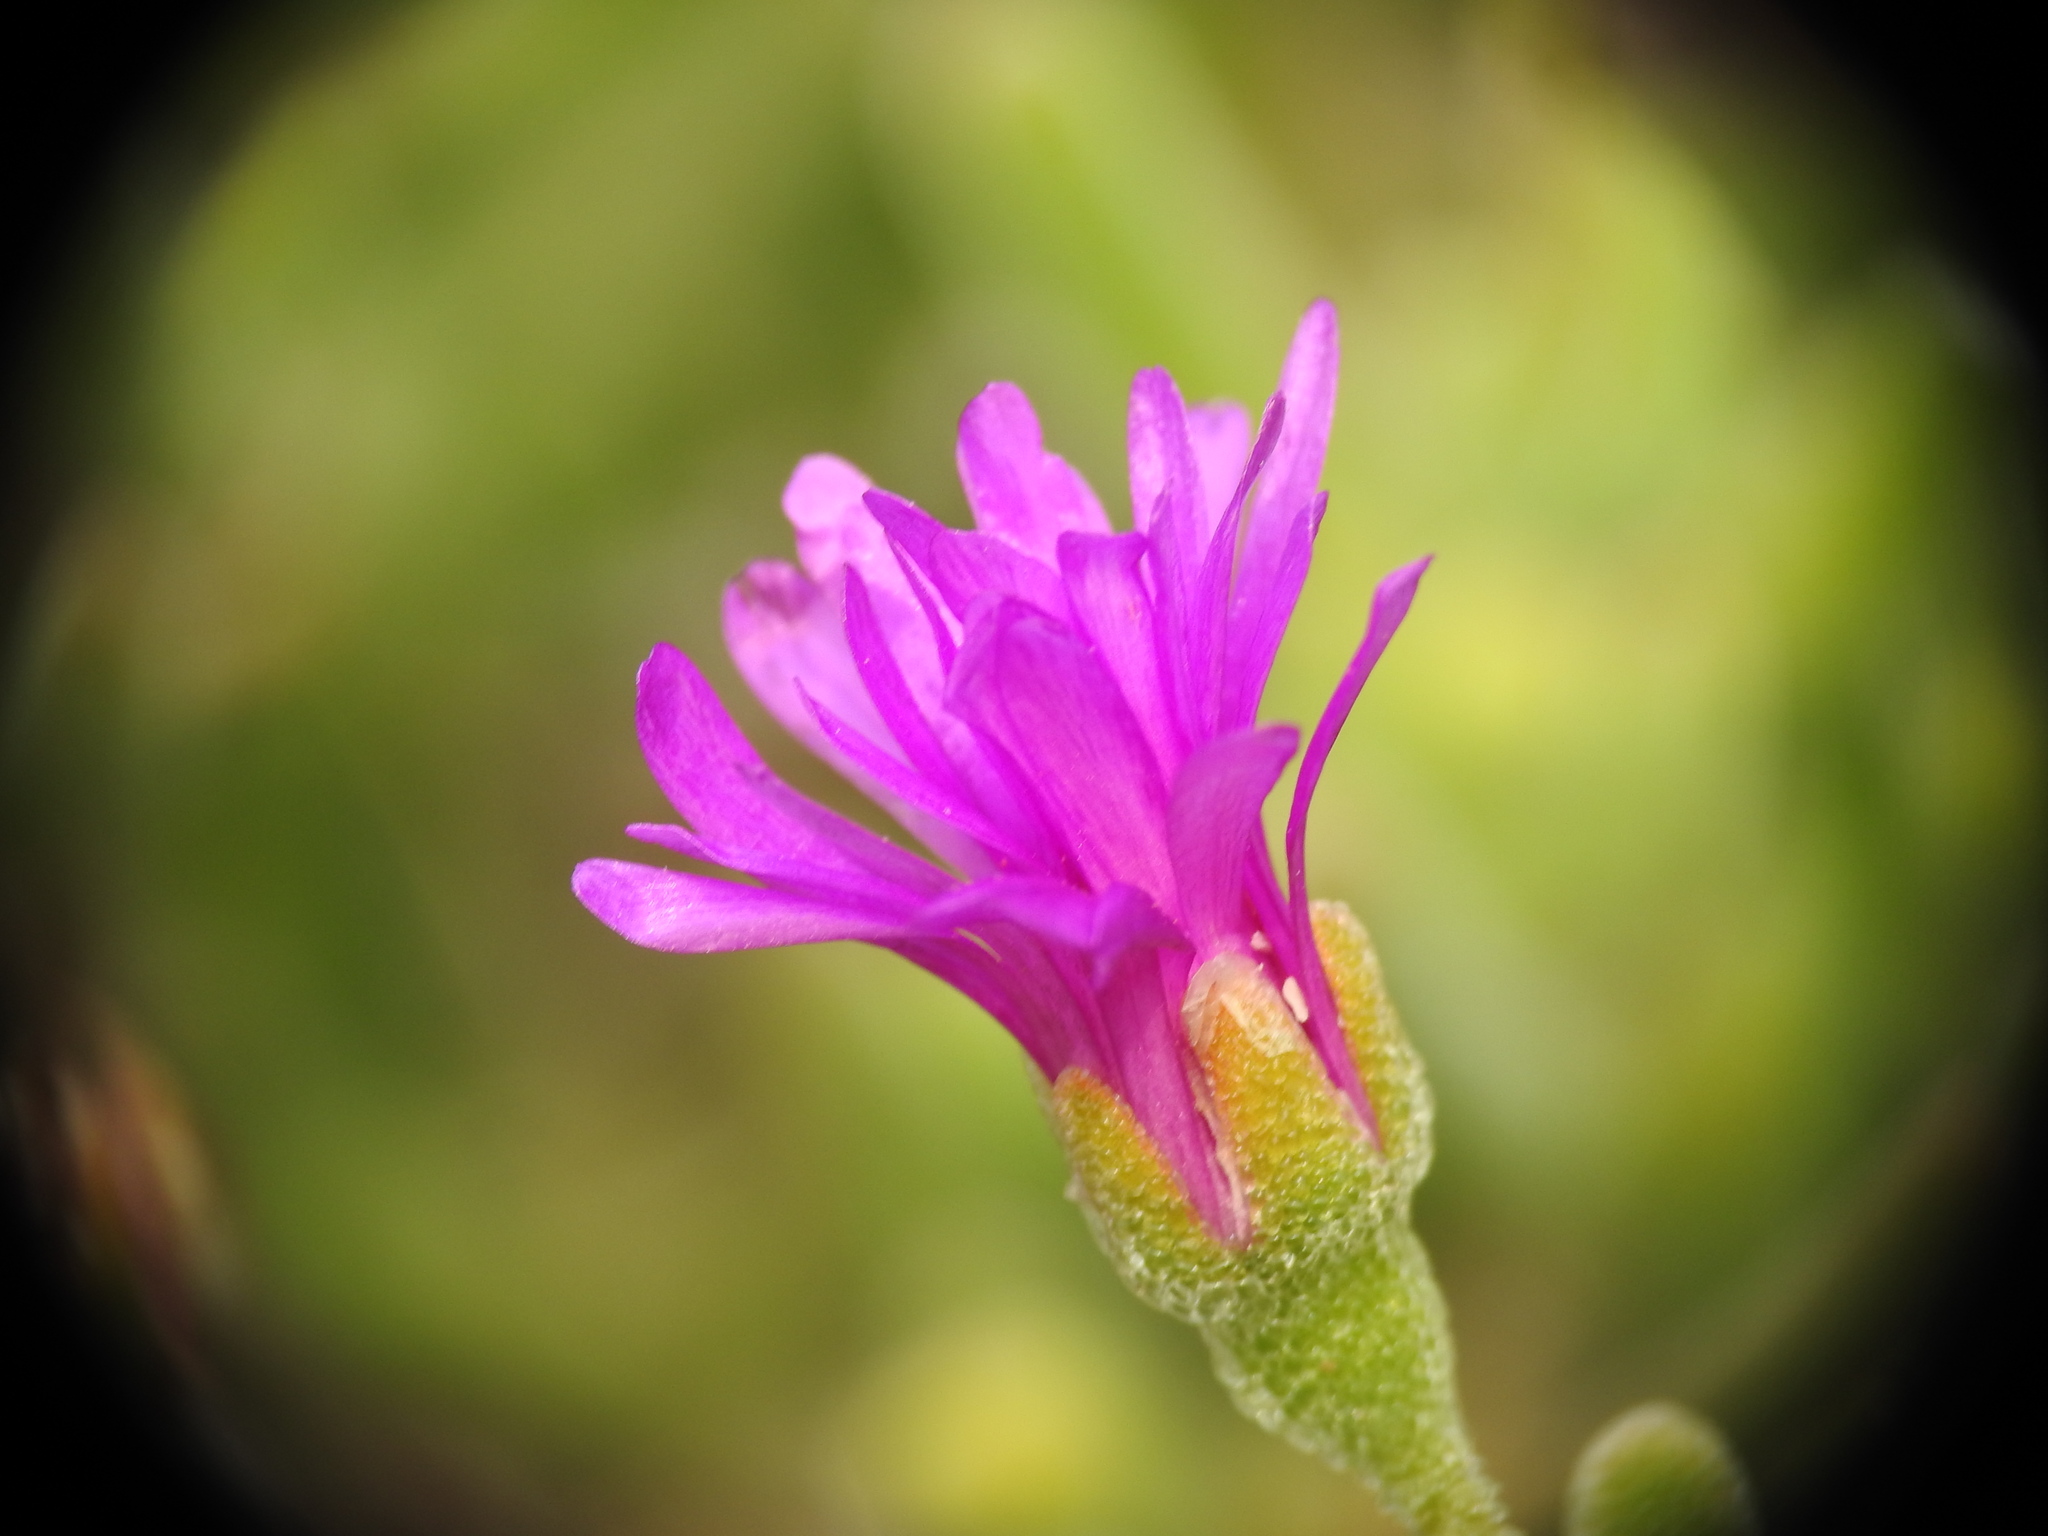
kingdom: Plantae
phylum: Tracheophyta
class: Magnoliopsida
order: Caryophyllales
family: Aizoaceae
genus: Drosanthemum
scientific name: Drosanthemum floribundum
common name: Pale dewplant
